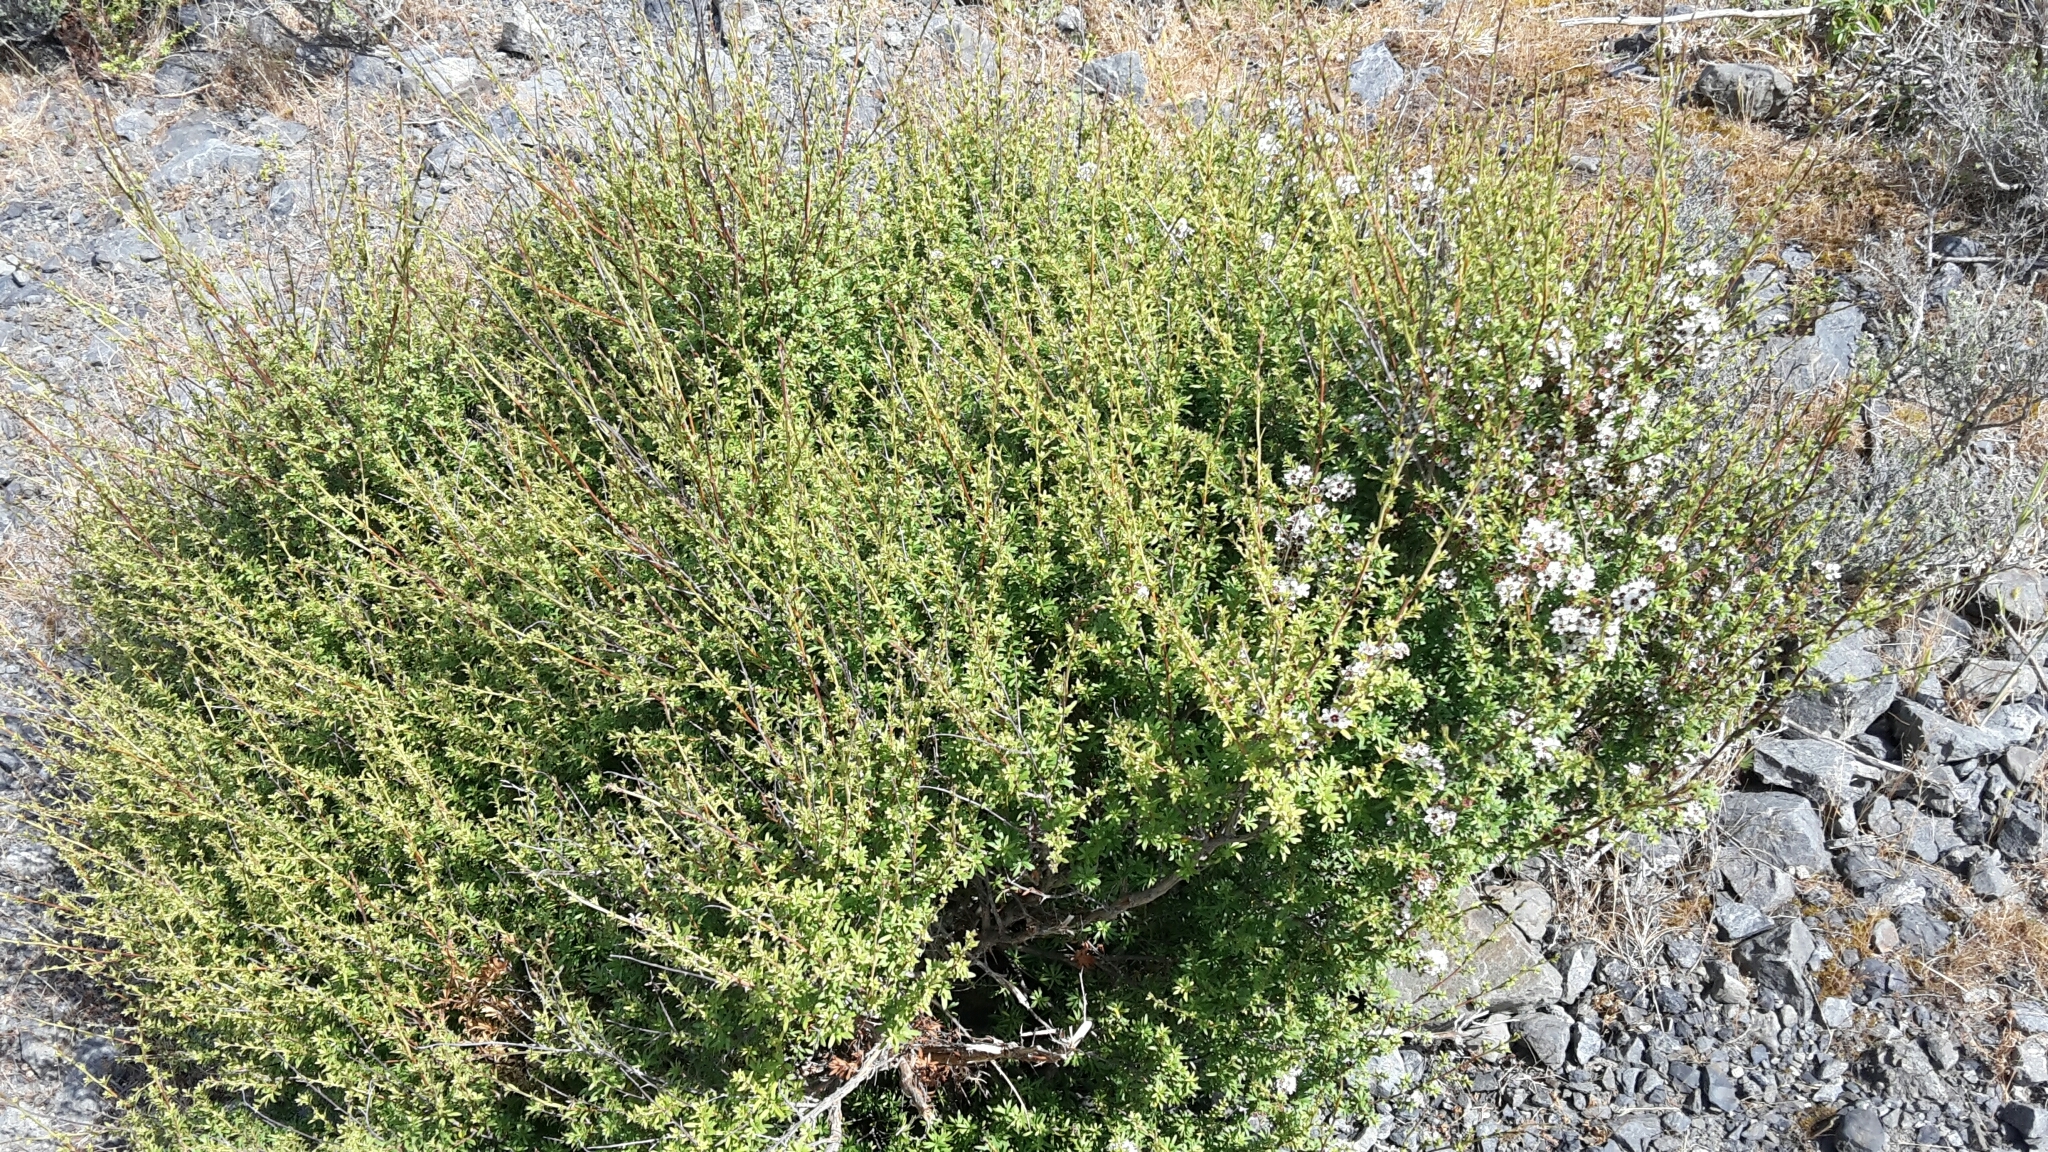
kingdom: Plantae
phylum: Tracheophyta
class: Magnoliopsida
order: Myrtales
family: Myrtaceae
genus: Leptospermum
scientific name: Leptospermum scoparium
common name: Broom tea-tree
